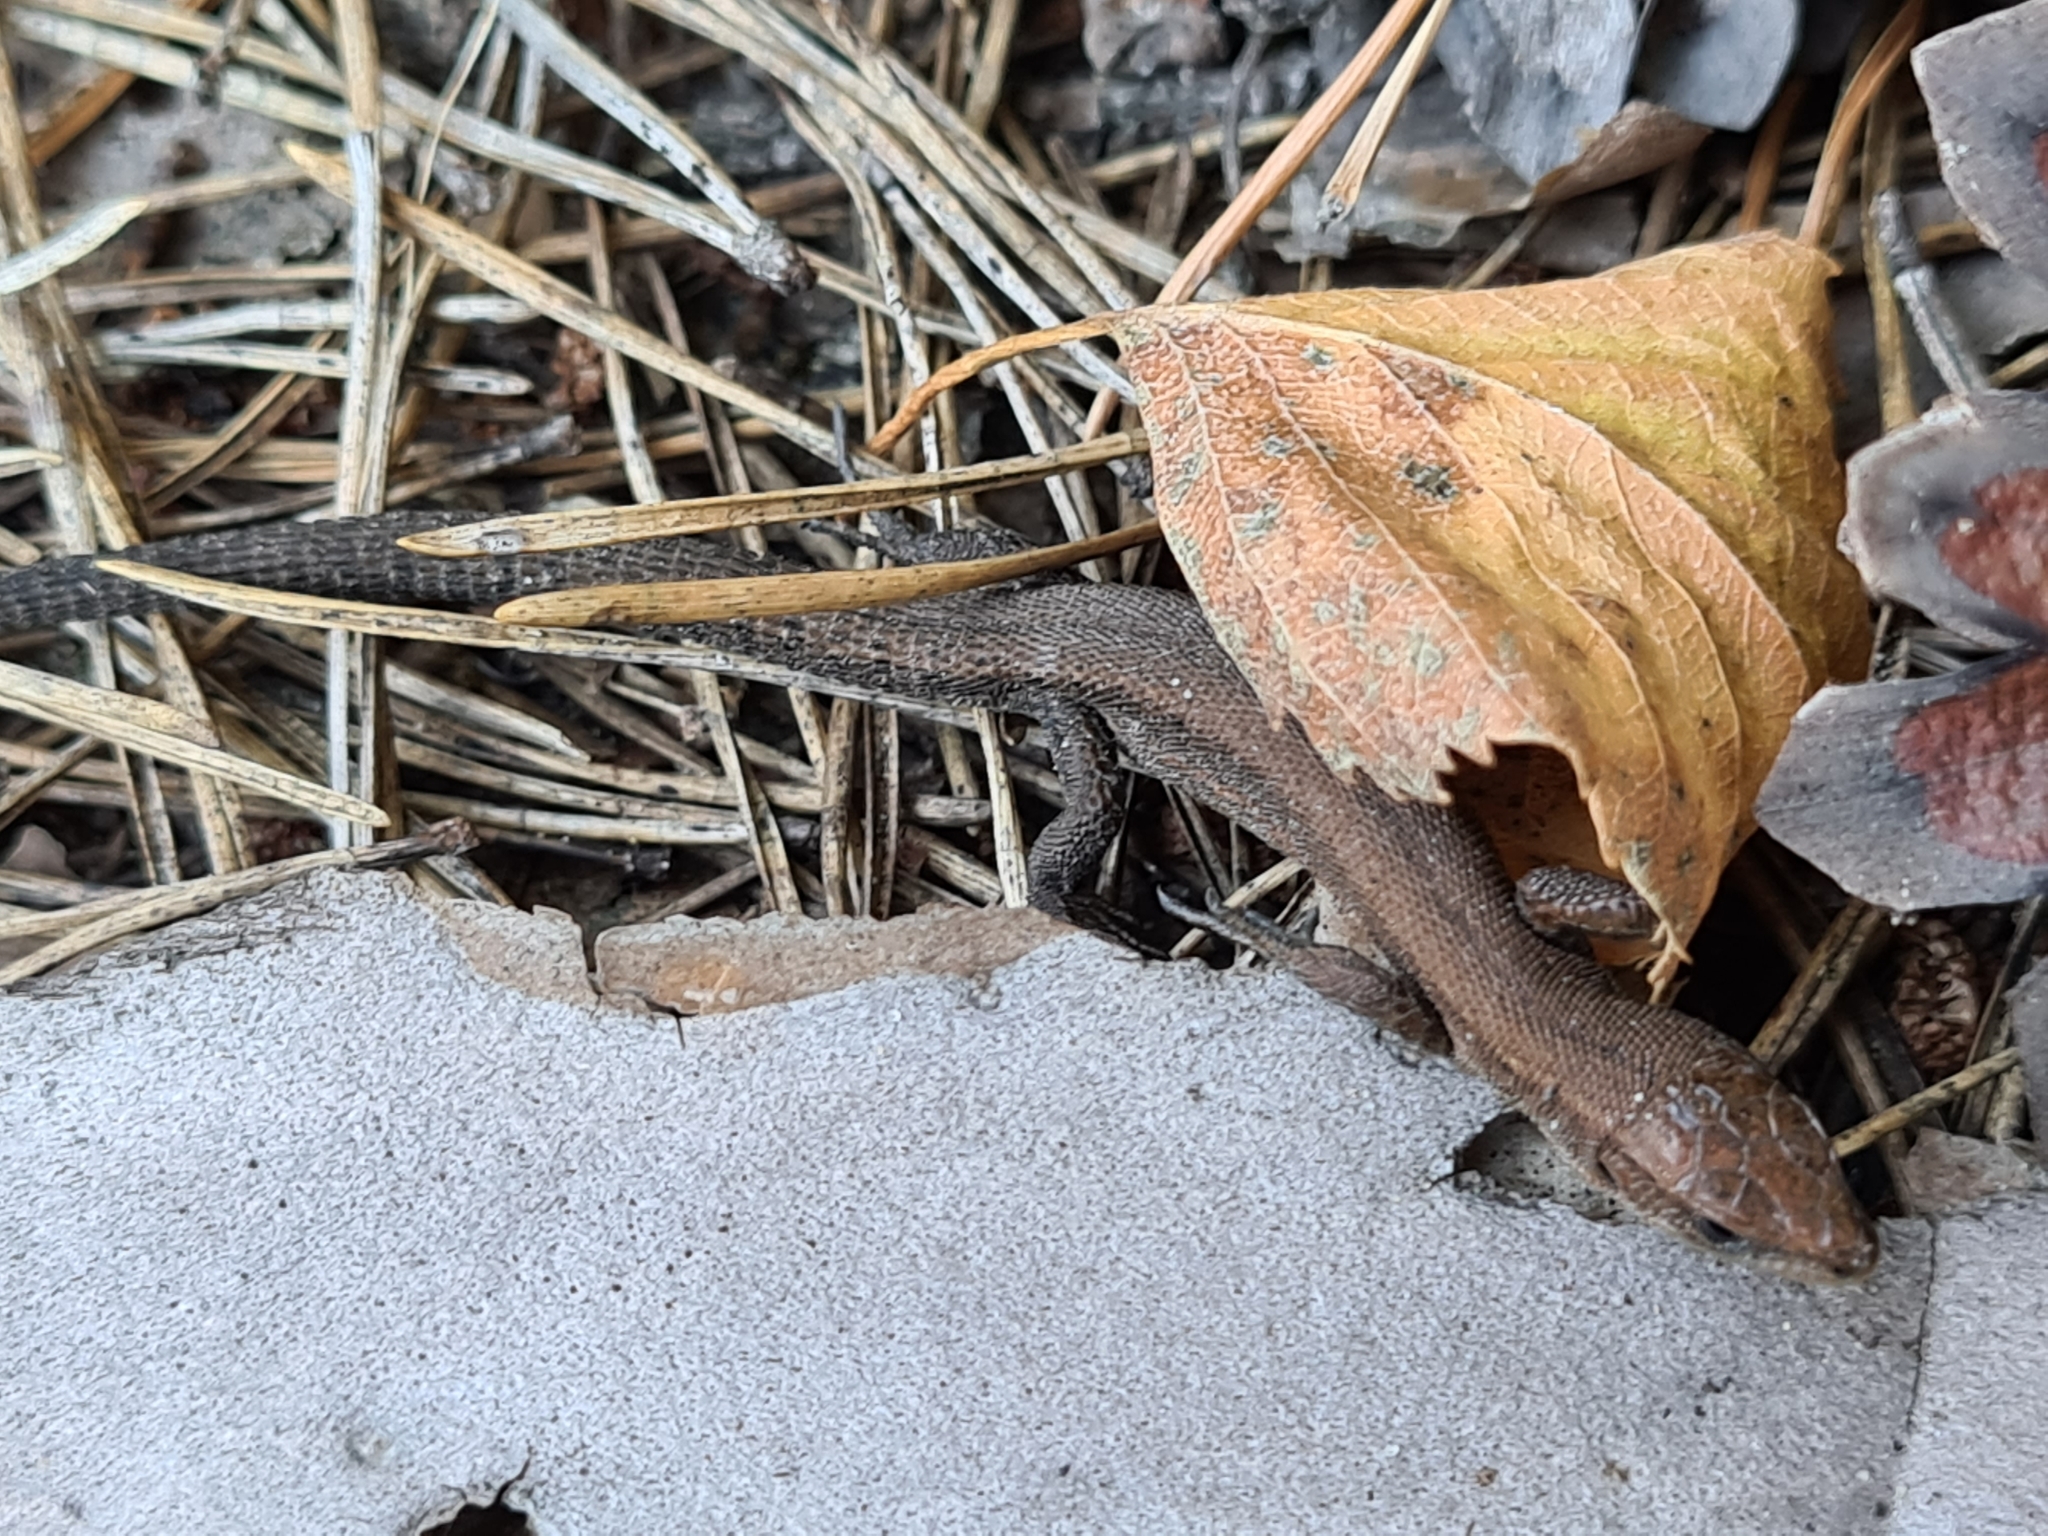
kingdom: Animalia
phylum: Chordata
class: Squamata
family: Lacertidae
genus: Zootoca
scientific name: Zootoca vivipara
